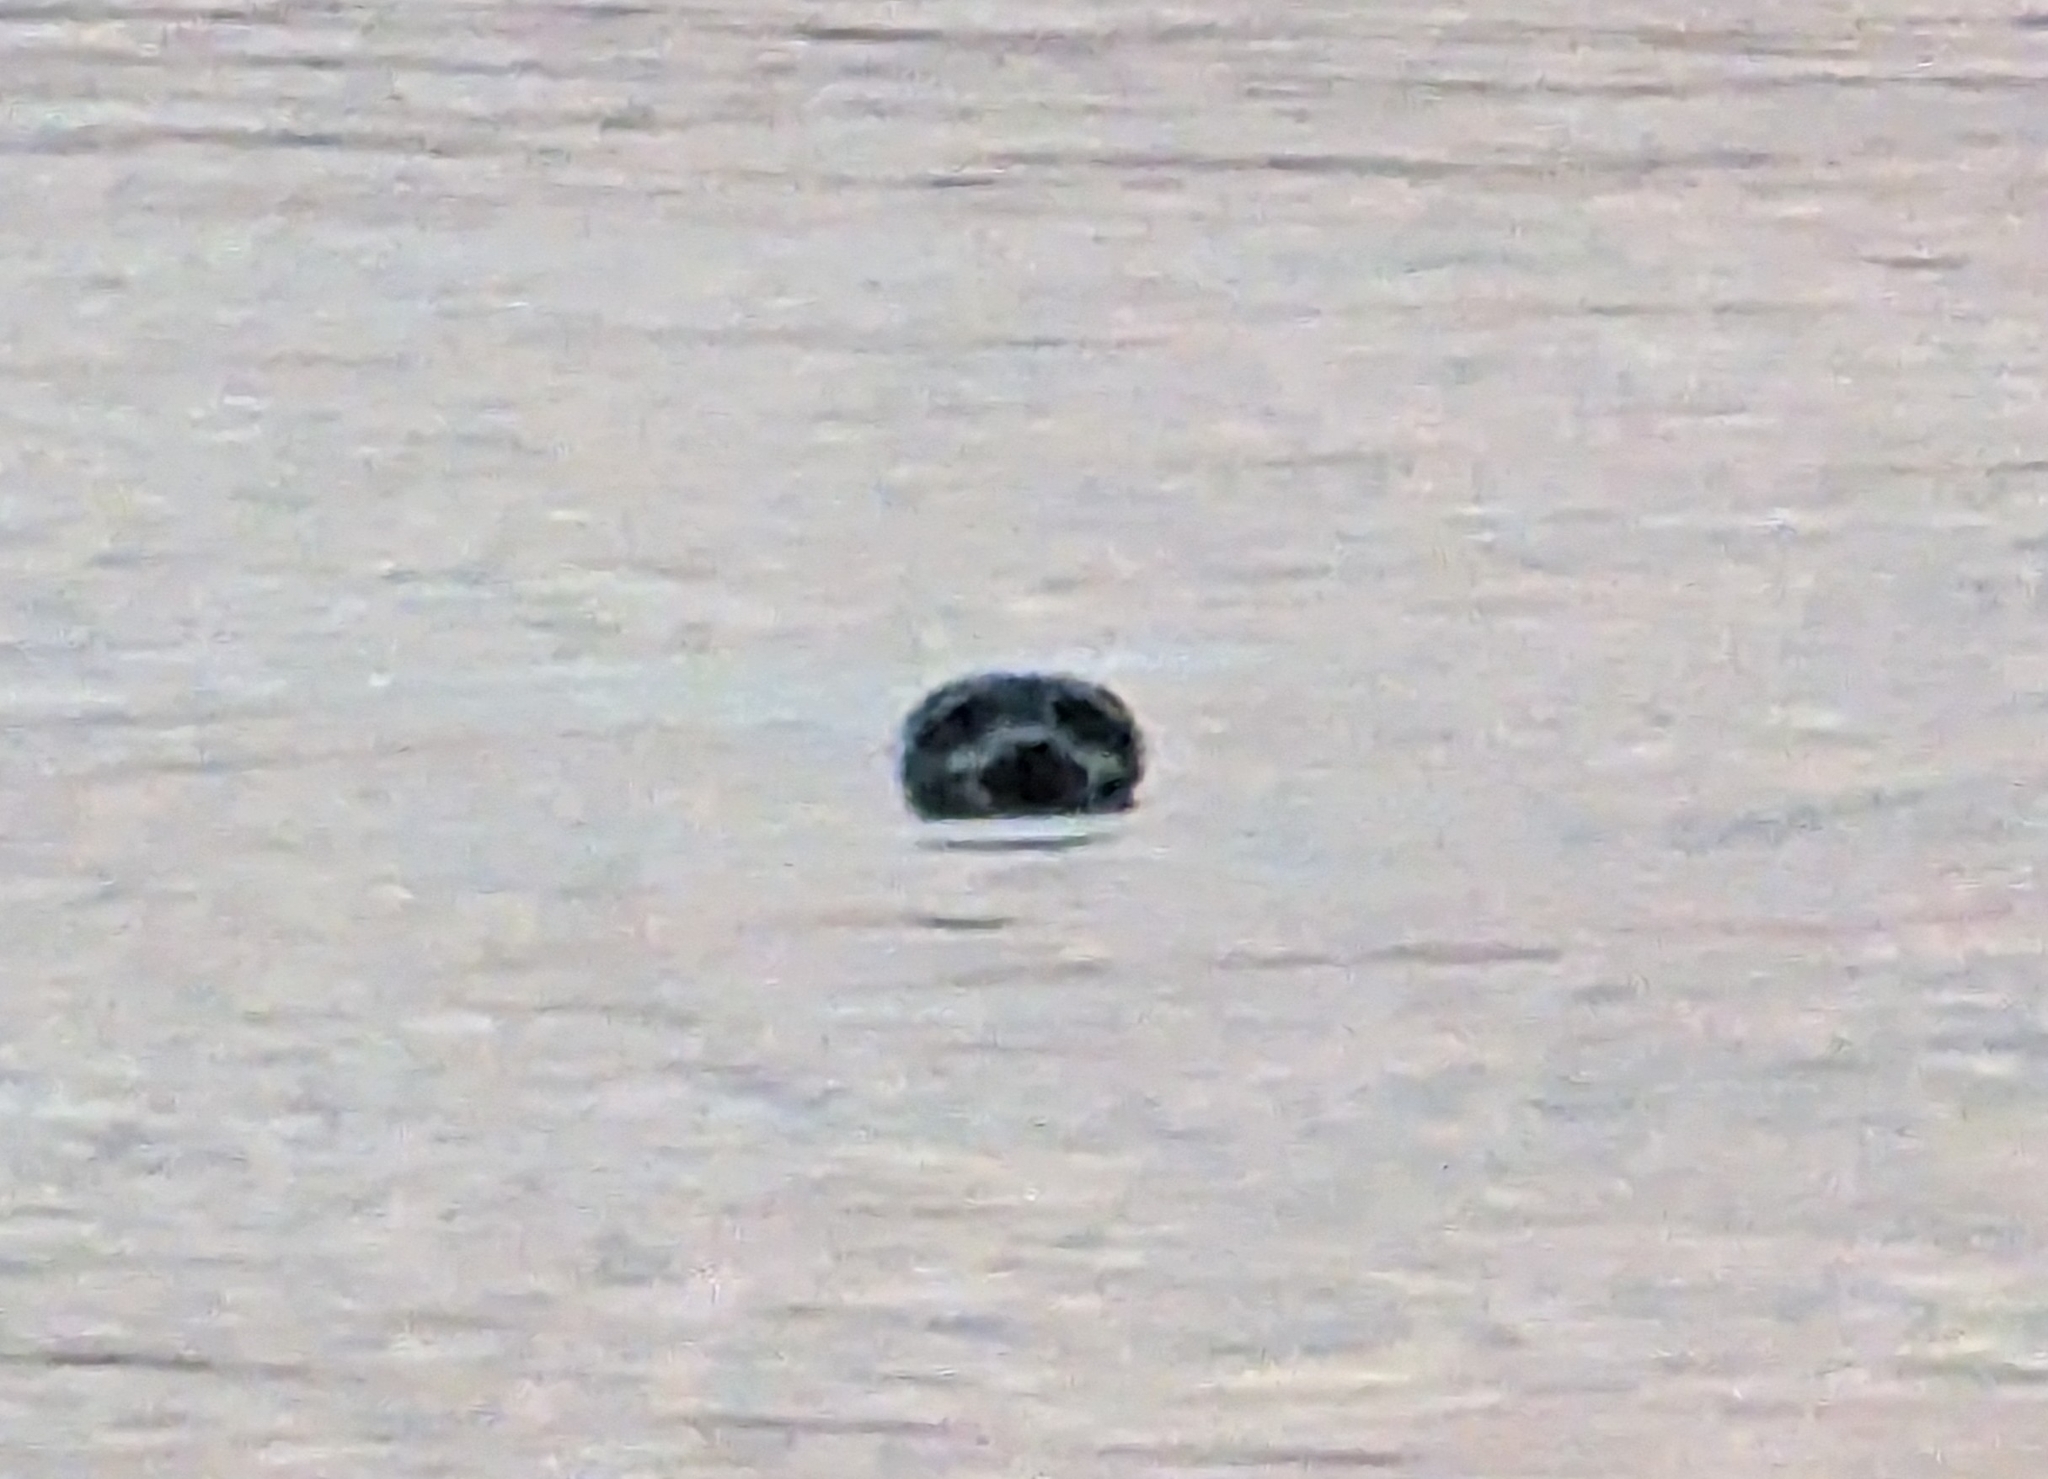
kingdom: Animalia
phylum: Chordata
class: Mammalia
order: Carnivora
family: Phocidae
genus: Phoca
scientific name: Phoca vitulina
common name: Harbor seal
